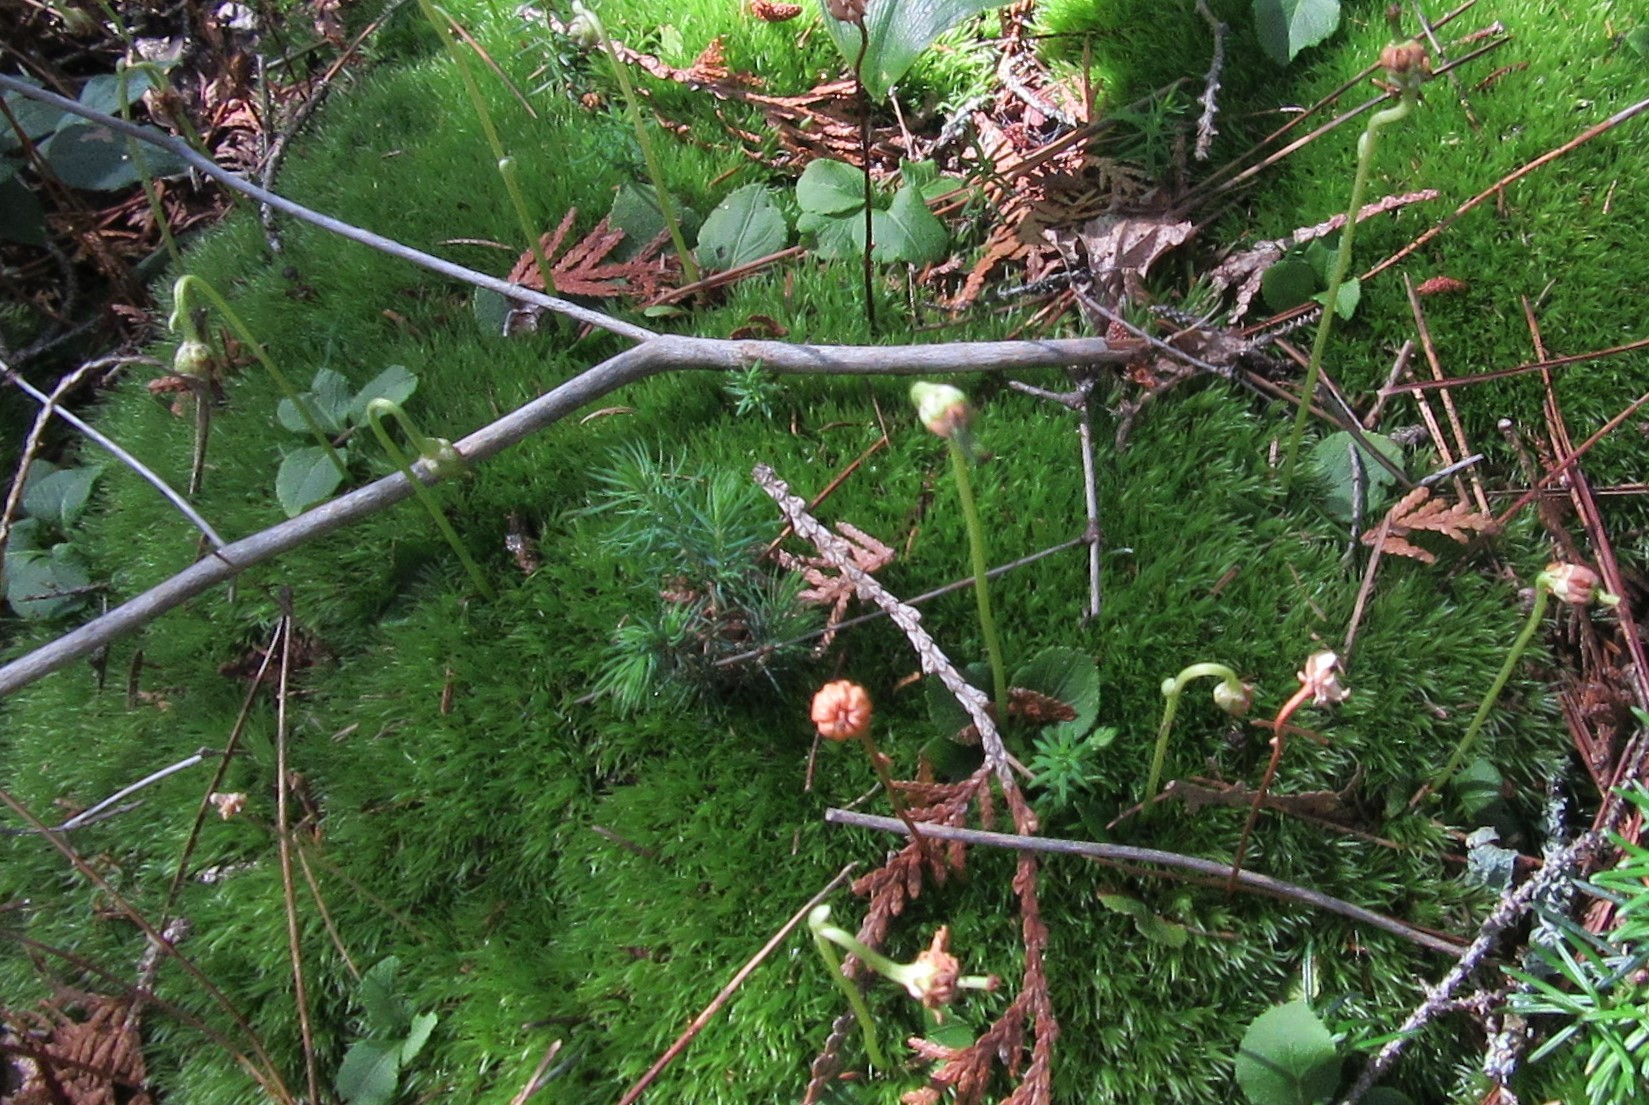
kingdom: Plantae
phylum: Tracheophyta
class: Magnoliopsida
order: Ericales
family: Ericaceae
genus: Moneses
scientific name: Moneses uniflora
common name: One-flowered wintergreen
